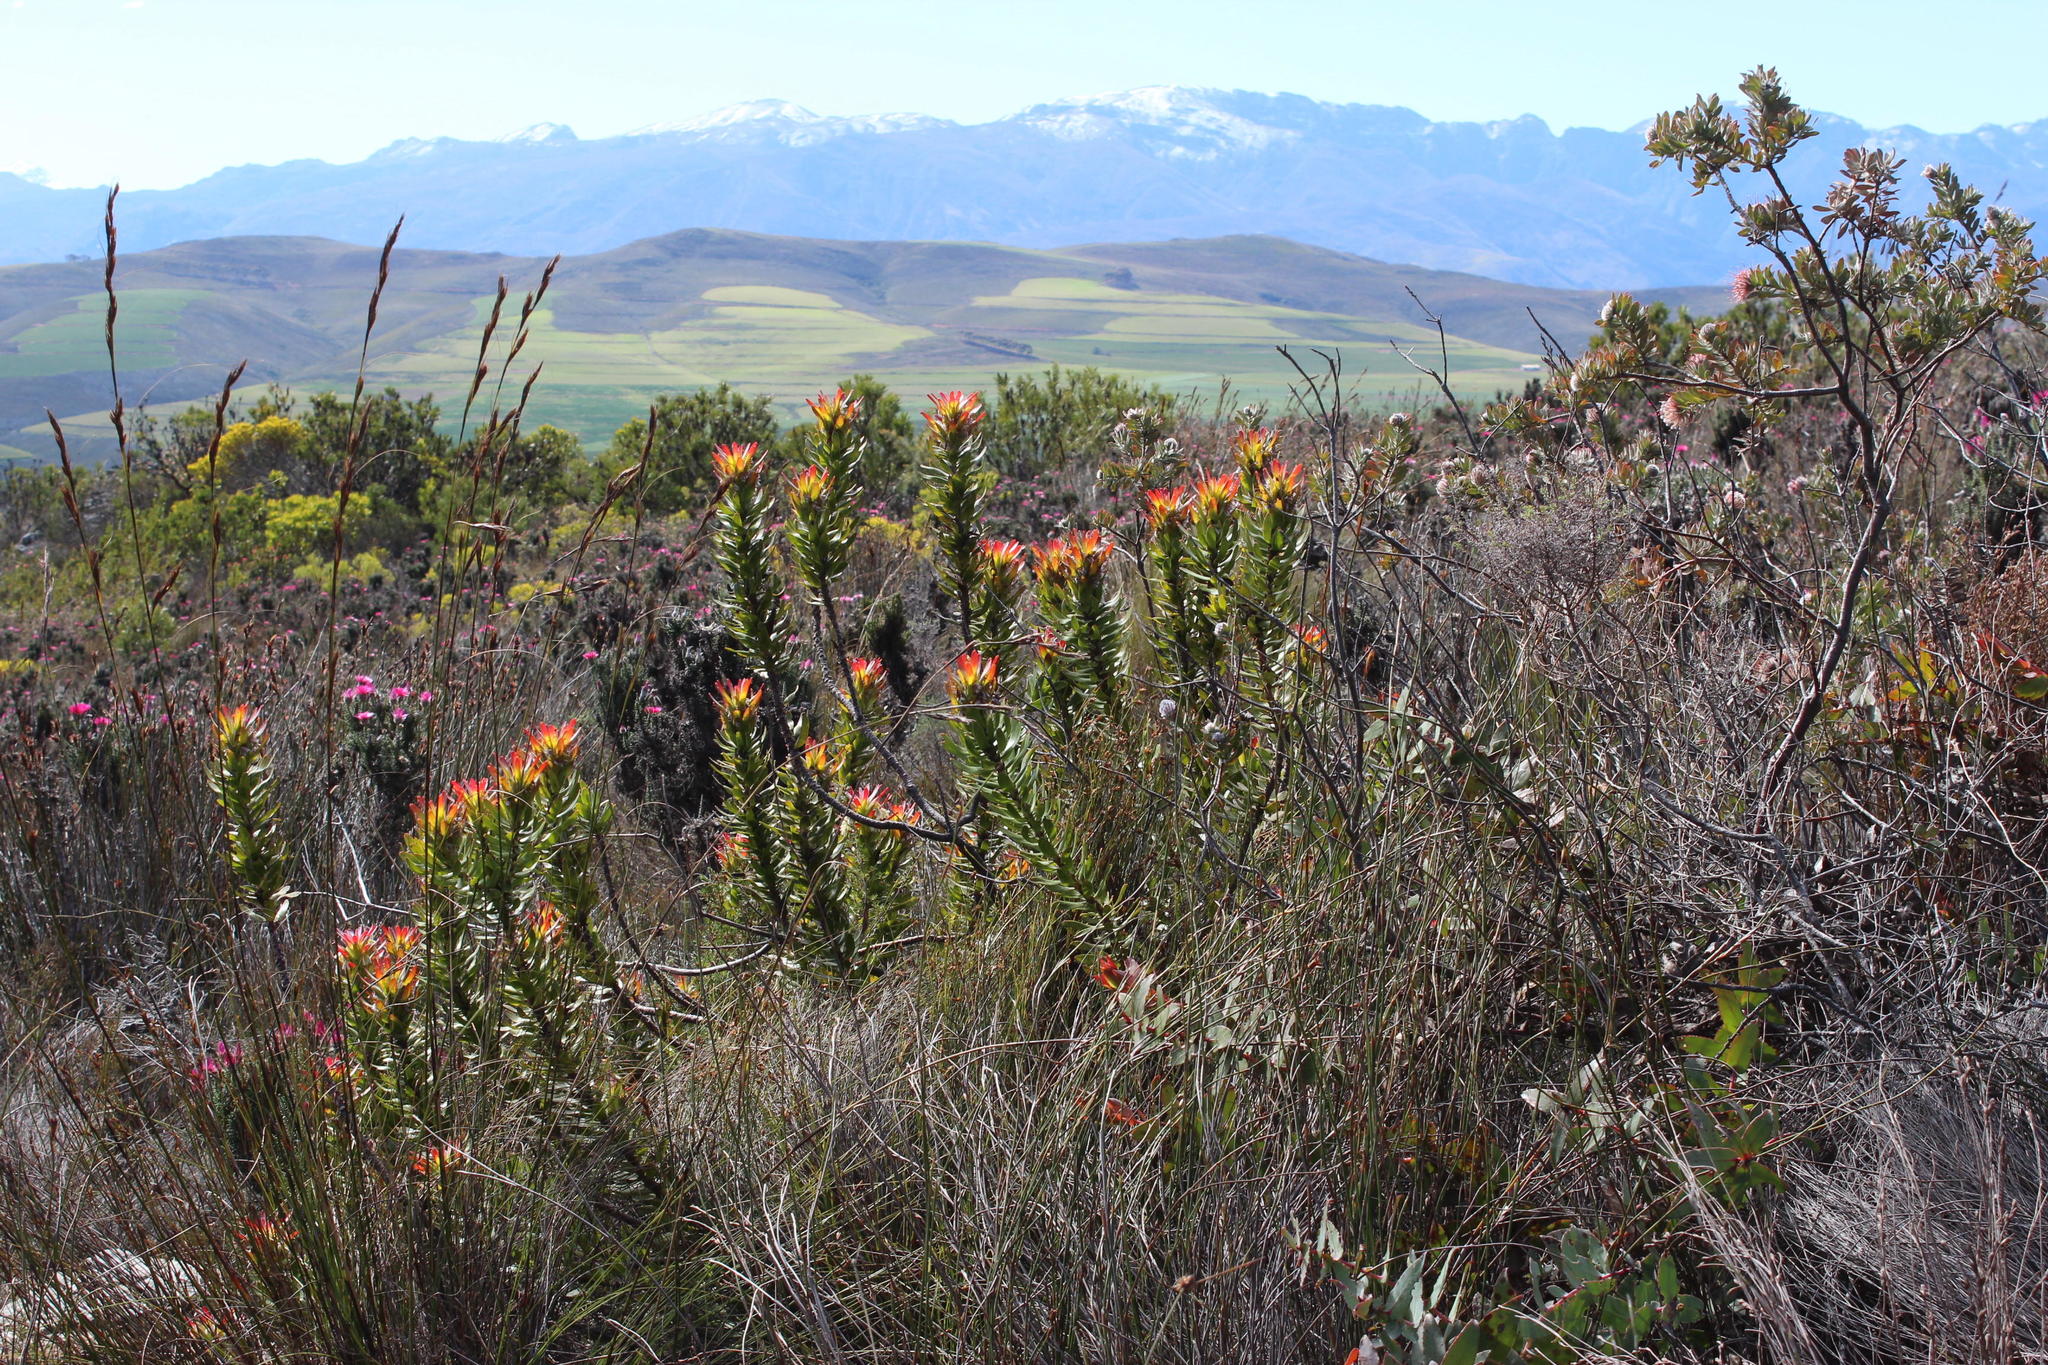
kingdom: Plantae
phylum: Tracheophyta
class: Magnoliopsida
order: Proteales
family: Proteaceae
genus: Mimetes
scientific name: Mimetes cucullatus
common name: Common pagoda
